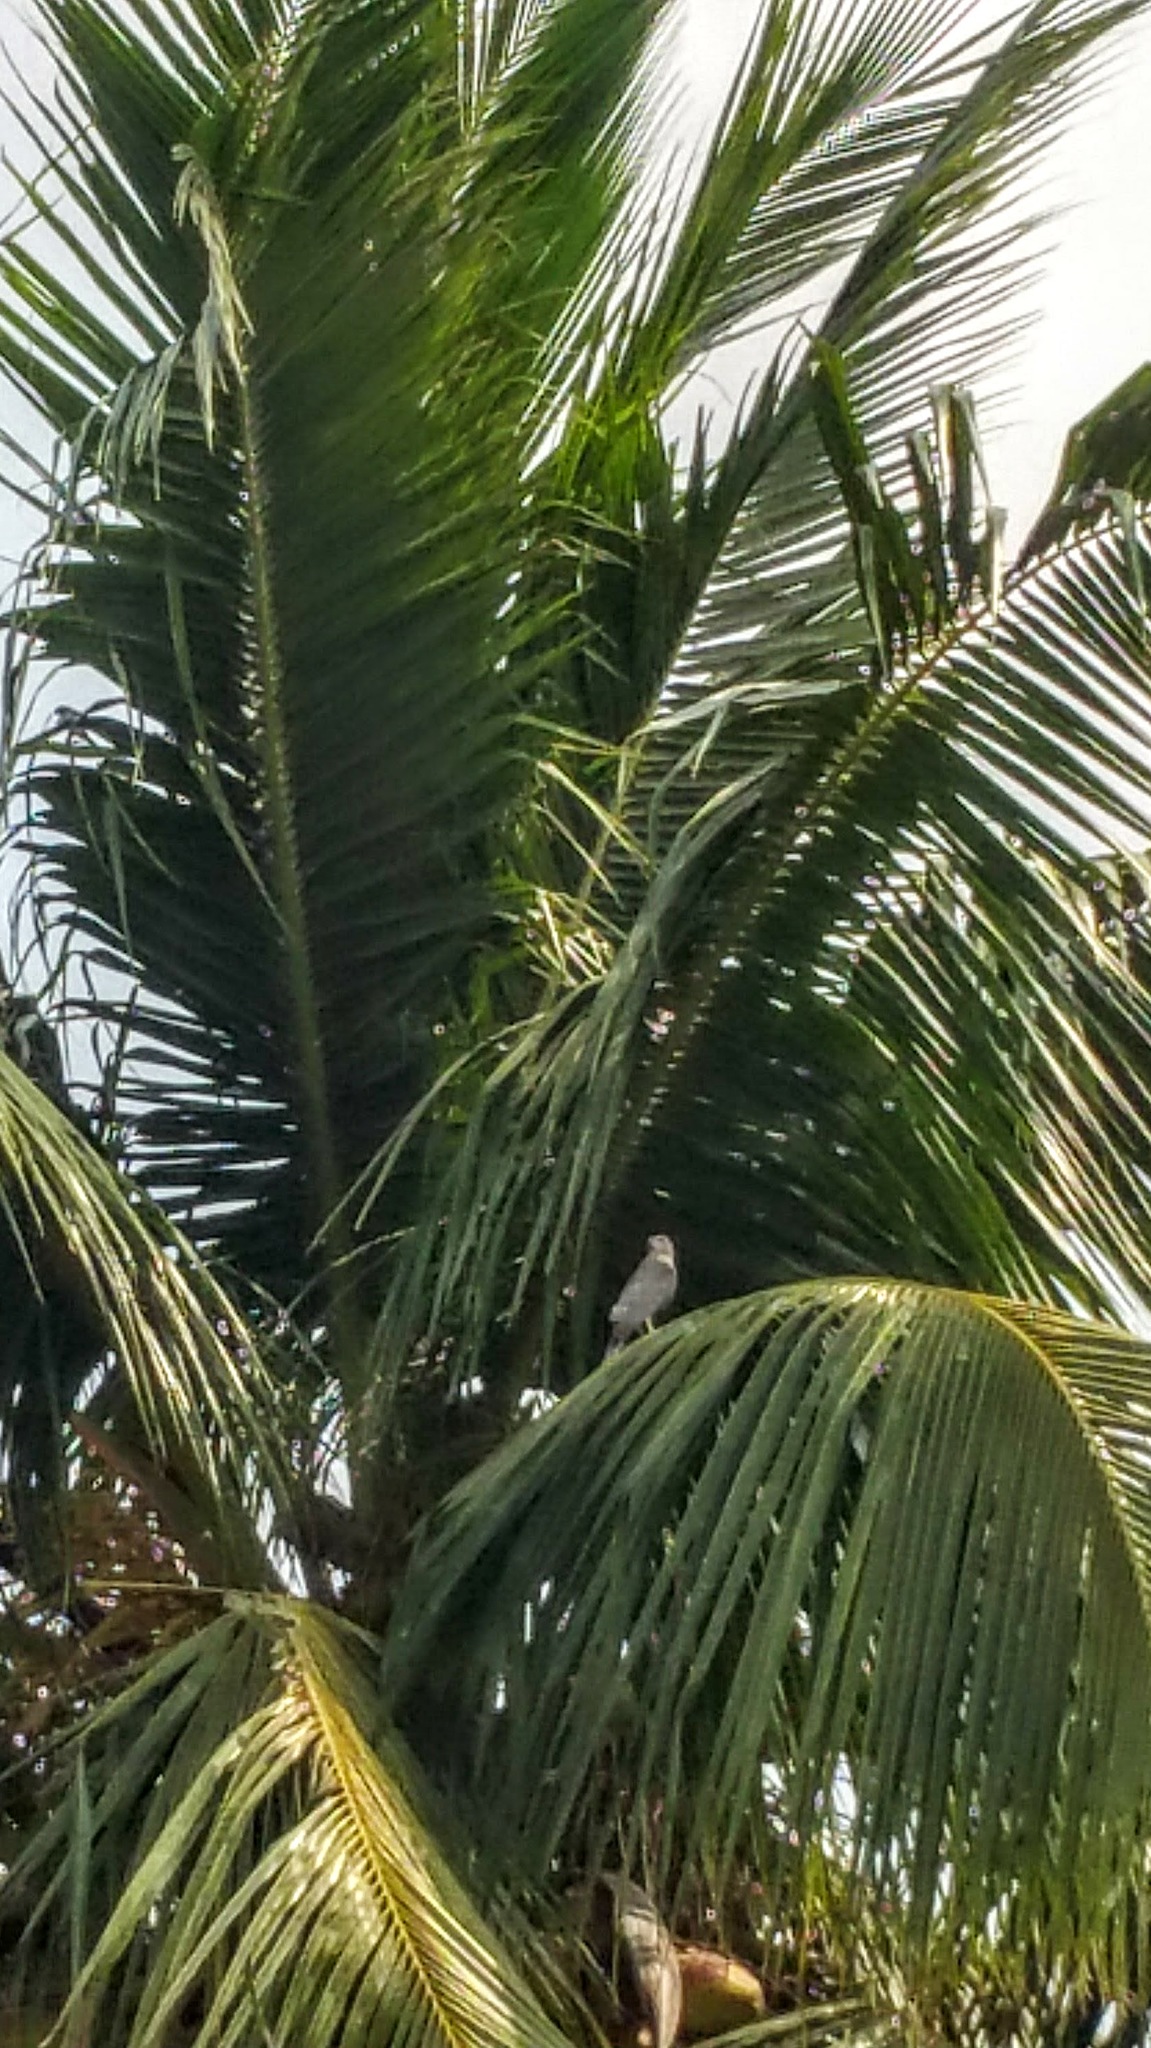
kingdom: Animalia
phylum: Chordata
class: Aves
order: Accipitriformes
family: Accipitridae
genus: Accipiter
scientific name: Accipiter badius
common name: Shikra
